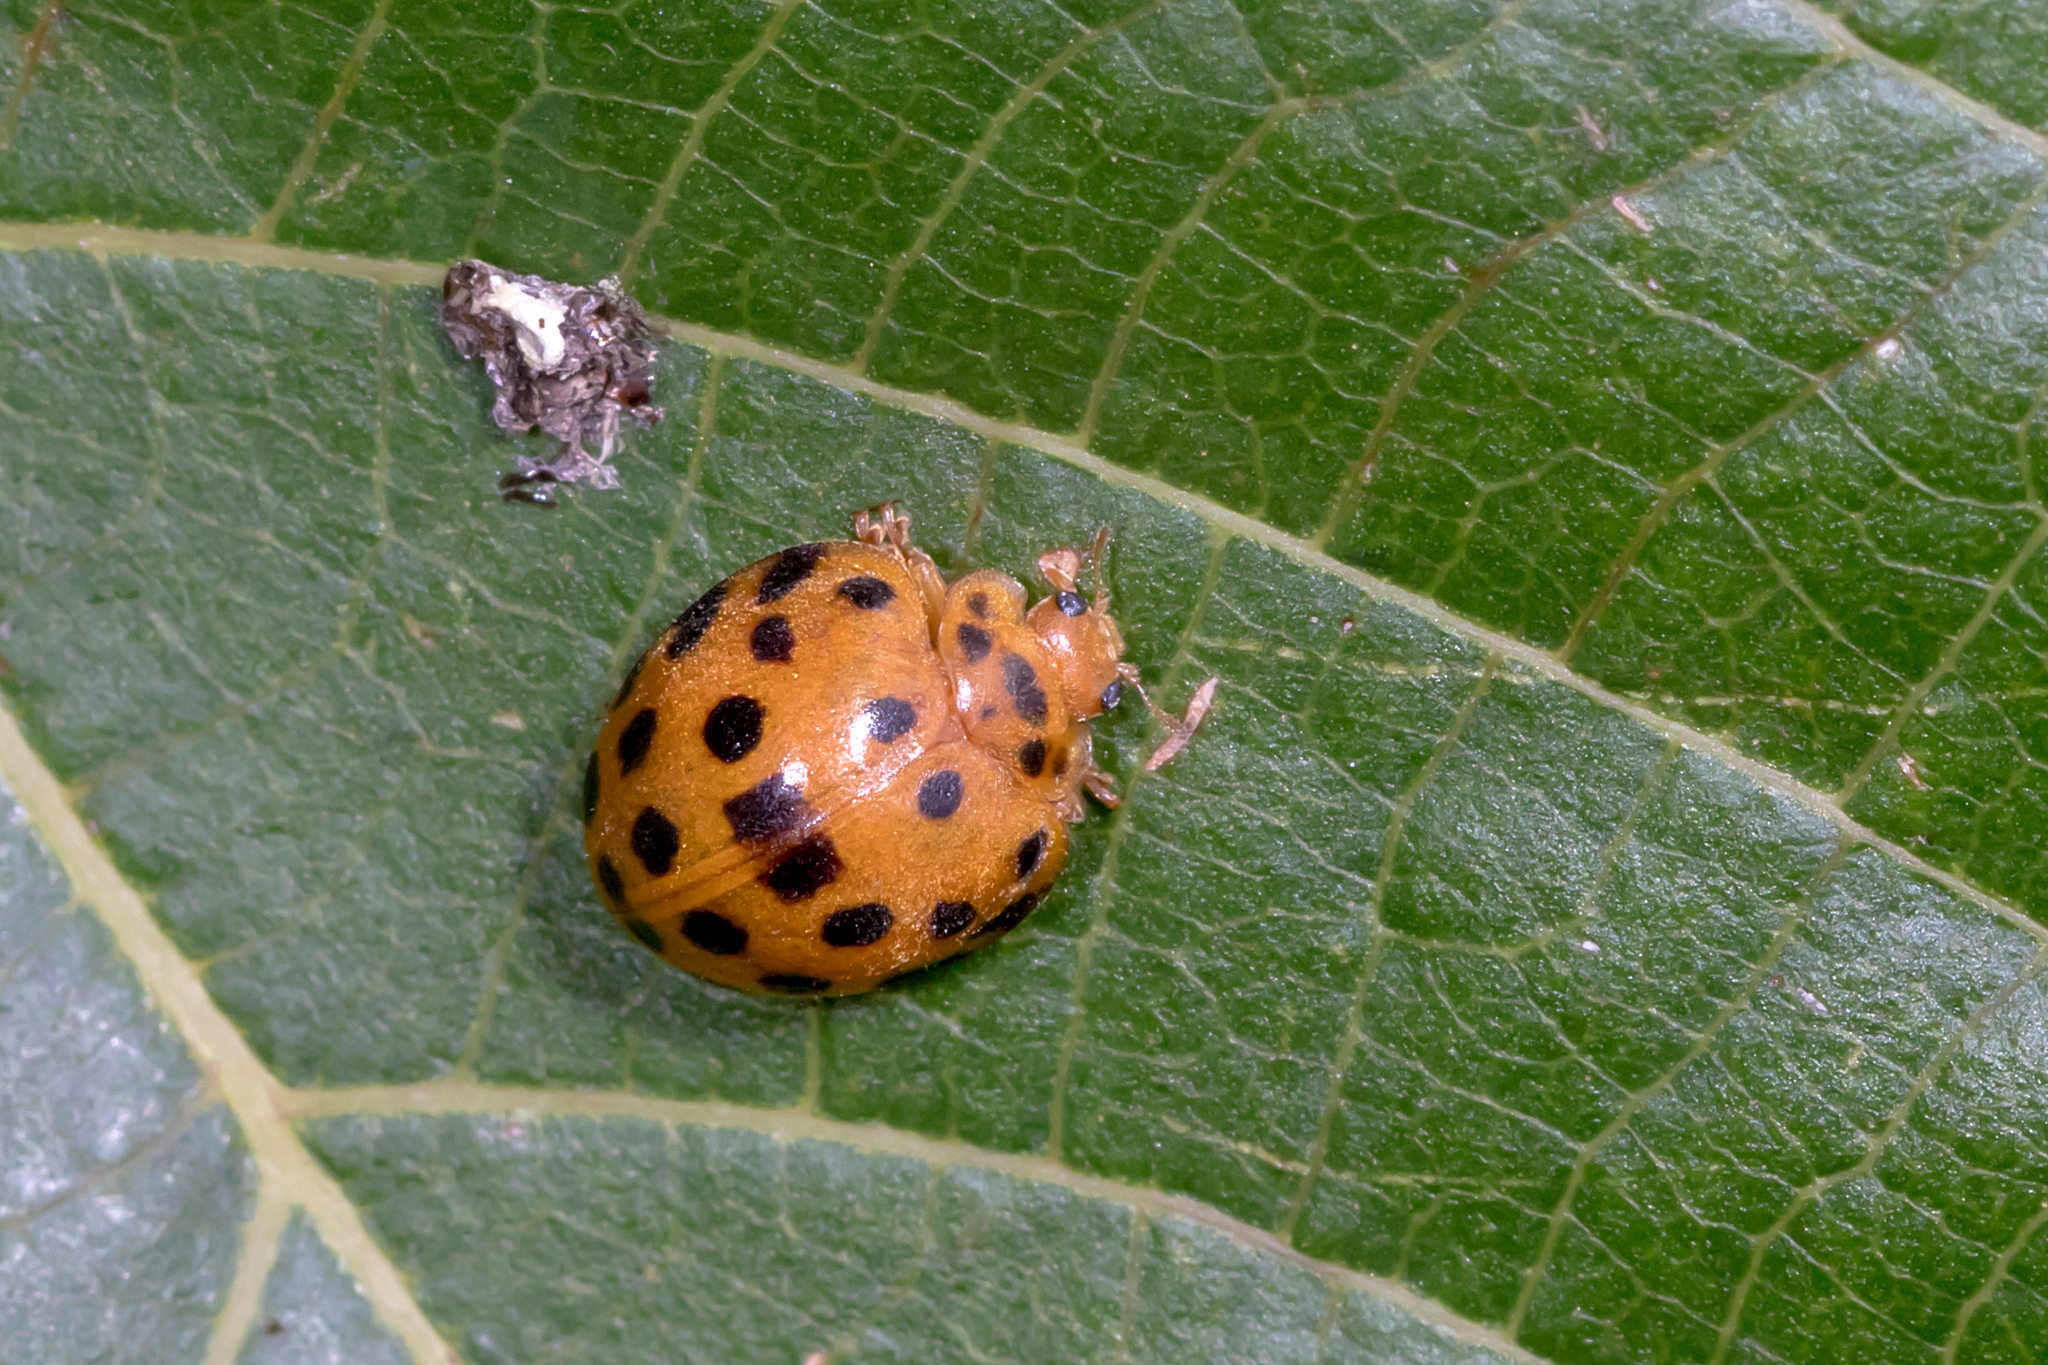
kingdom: Animalia
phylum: Arthropoda
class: Insecta
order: Coleoptera
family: Coccinellidae
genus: Henosepilachna
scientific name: Henosepilachna vigintioctopunctata
